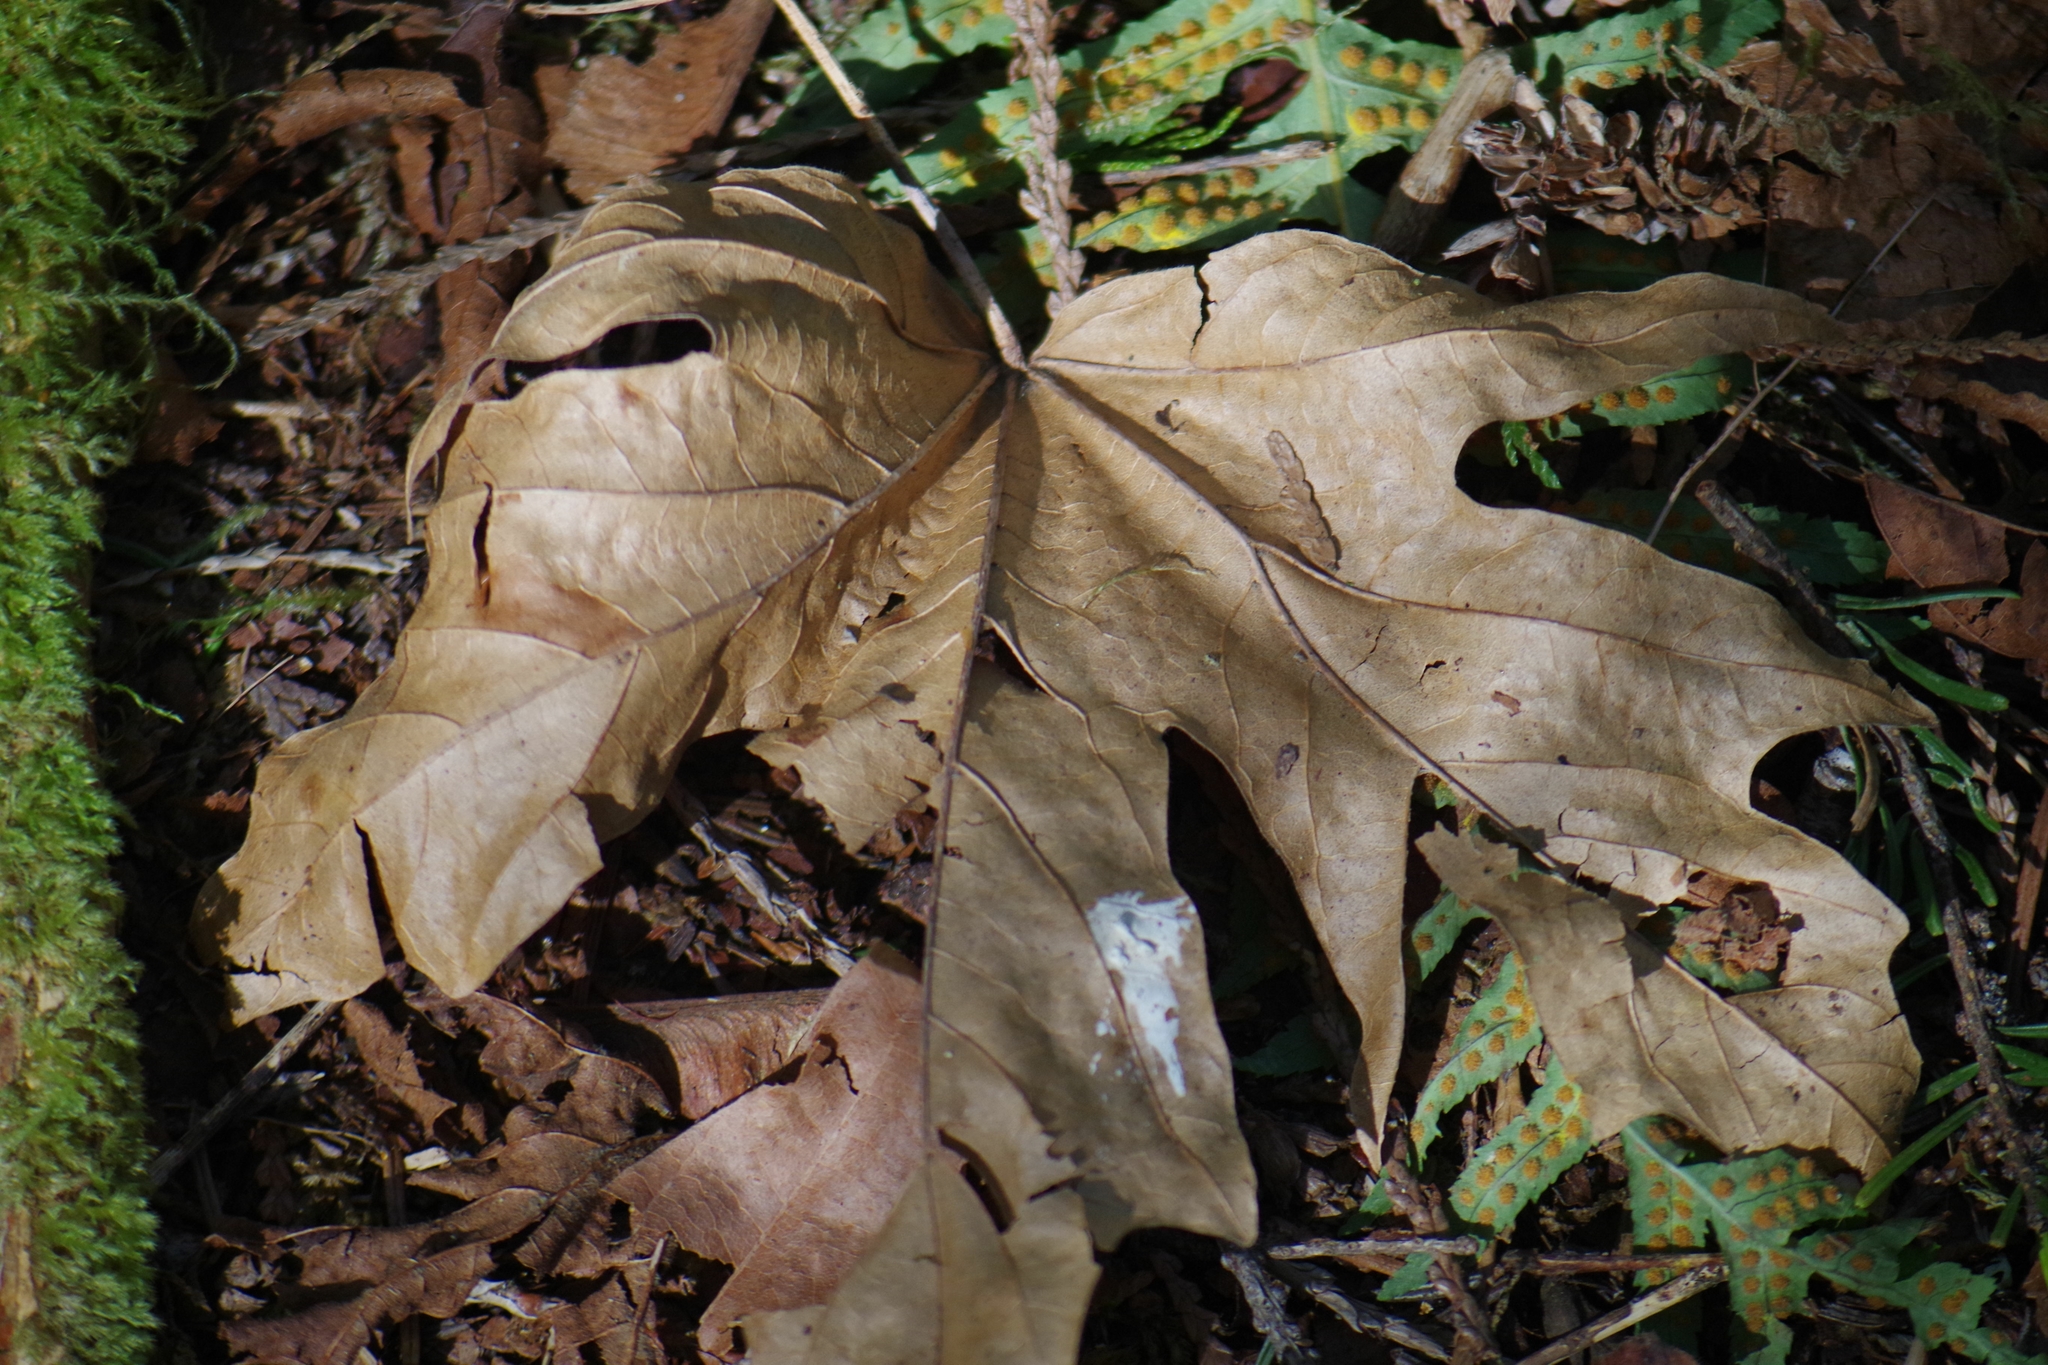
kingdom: Plantae
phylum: Tracheophyta
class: Magnoliopsida
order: Sapindales
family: Sapindaceae
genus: Acer
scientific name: Acer macrophyllum
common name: Oregon maple
